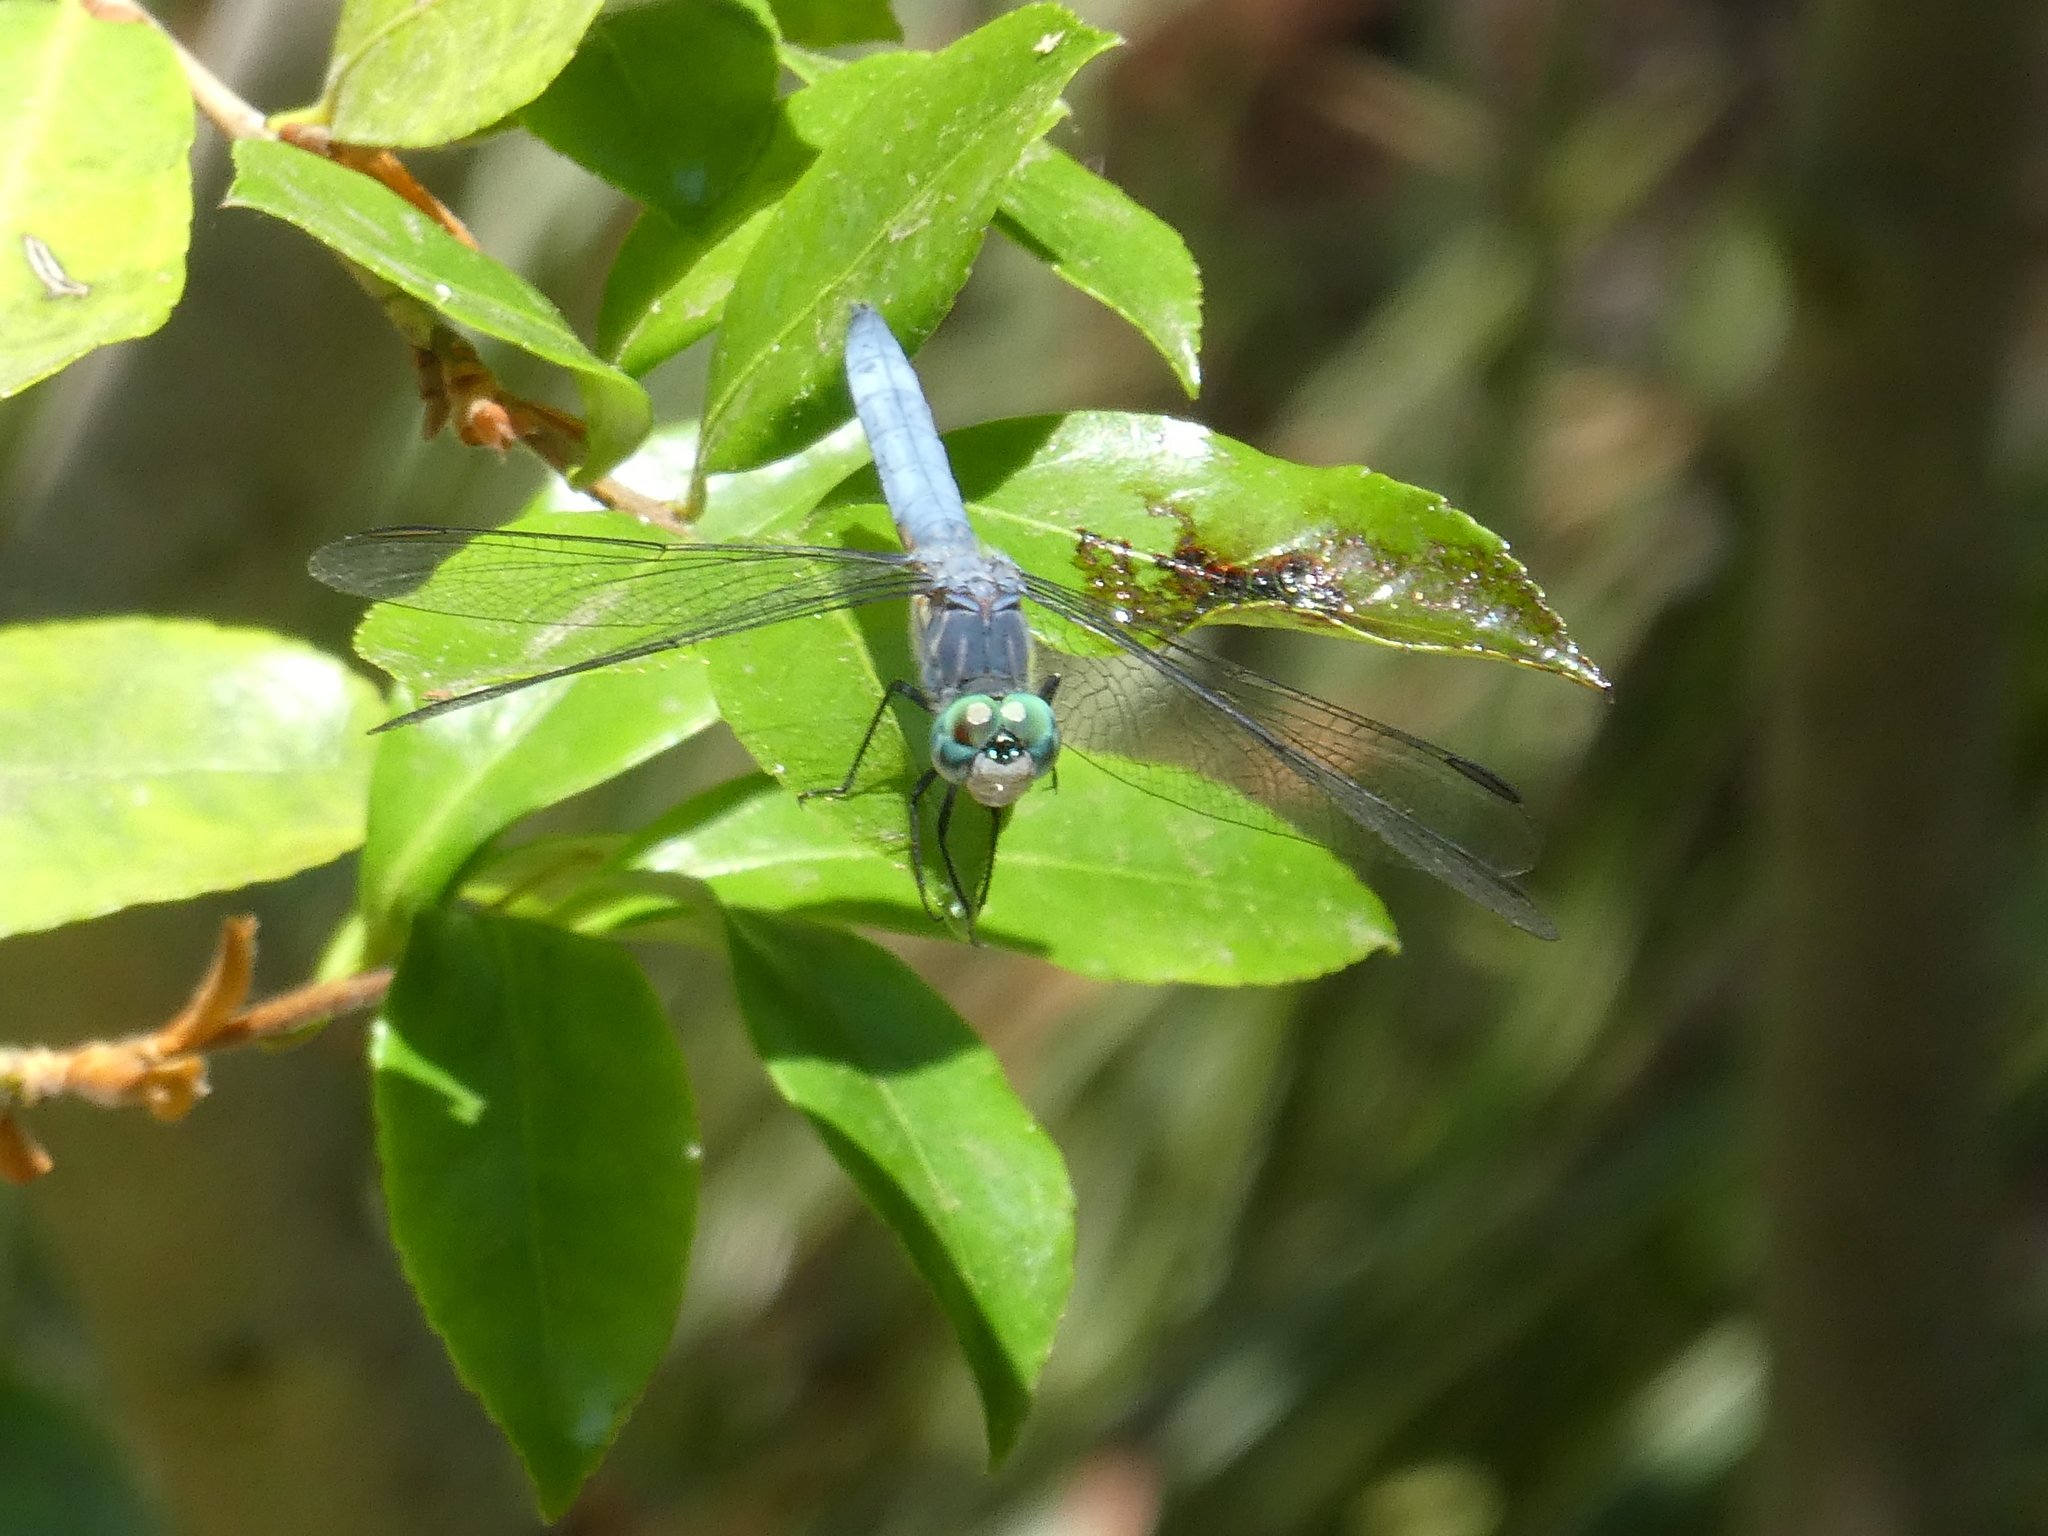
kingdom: Animalia
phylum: Arthropoda
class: Insecta
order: Odonata
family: Libellulidae
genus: Pachydiplax
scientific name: Pachydiplax longipennis
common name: Blue dasher
